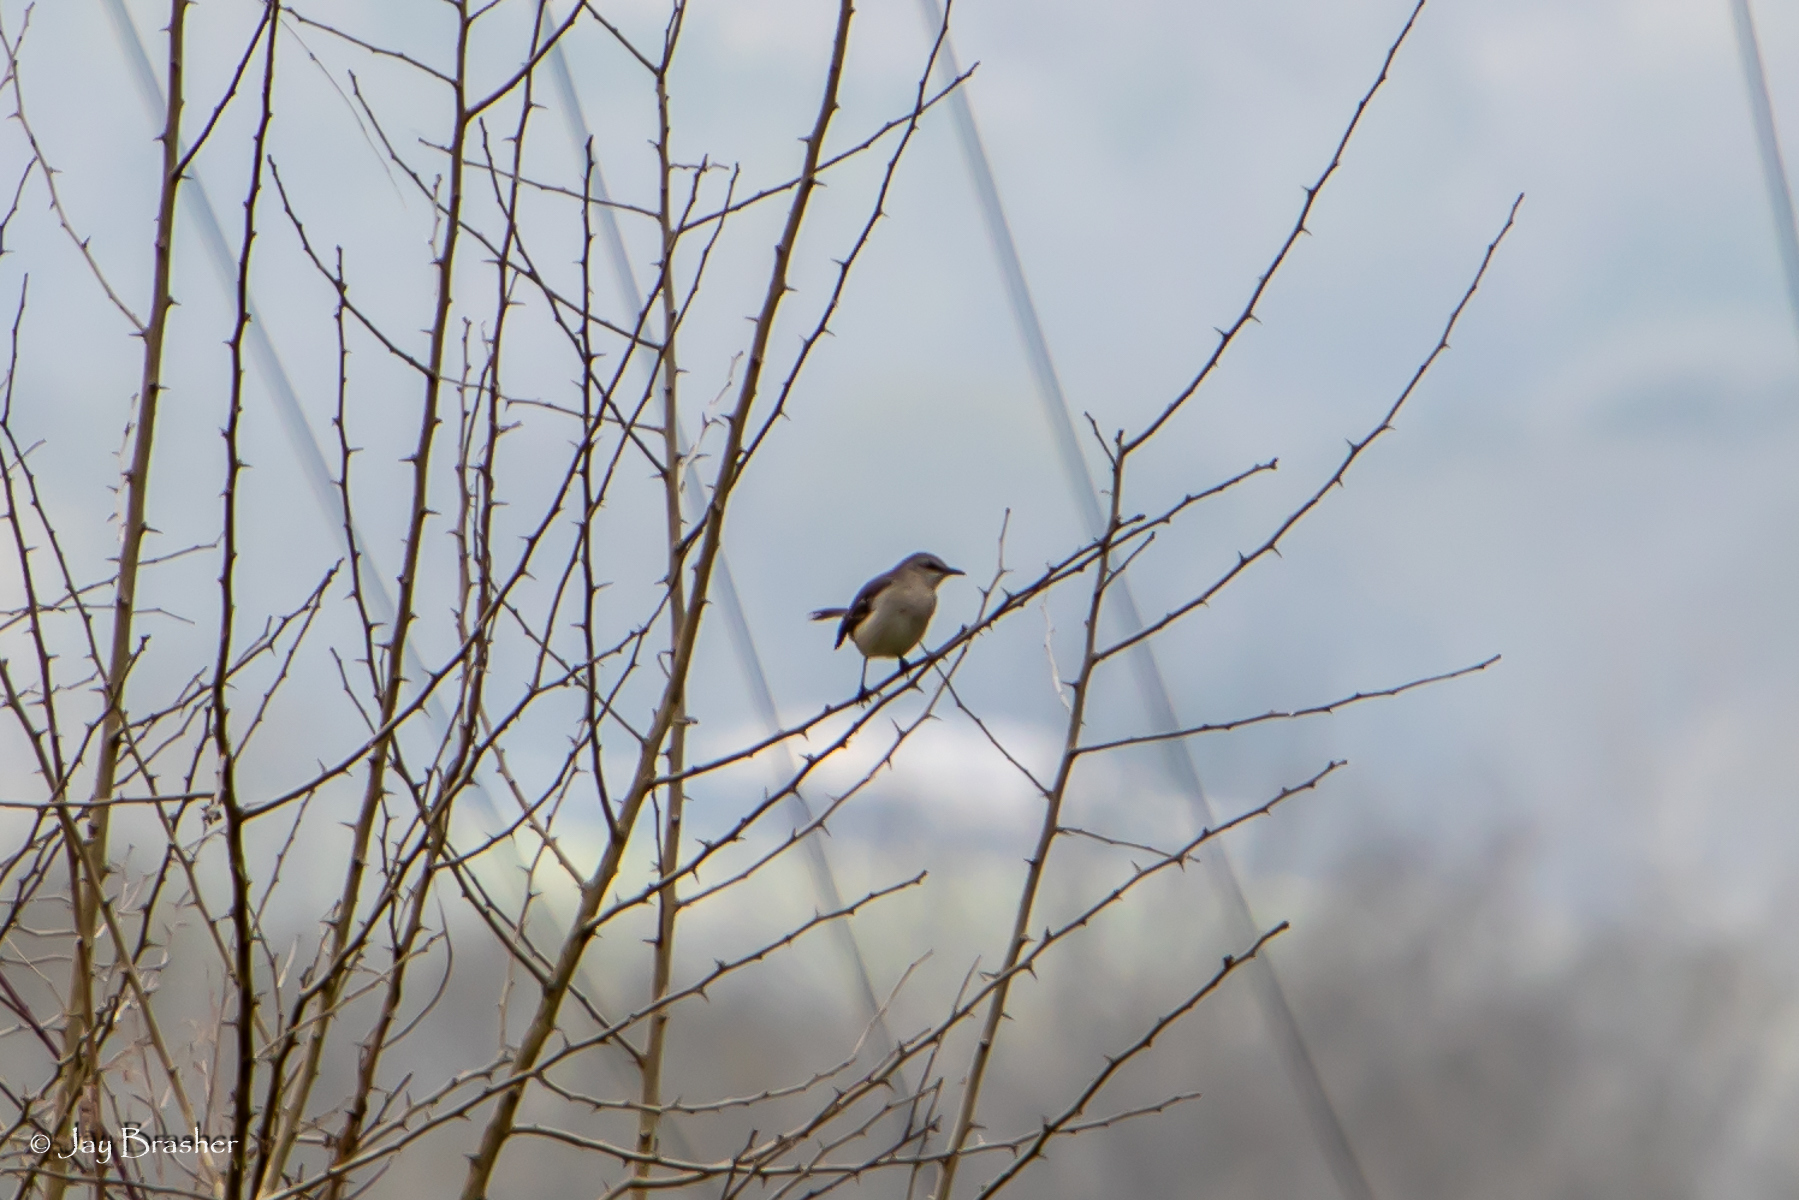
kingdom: Animalia
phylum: Chordata
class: Aves
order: Passeriformes
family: Mimidae
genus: Mimus
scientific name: Mimus polyglottos
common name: Northern mockingbird
